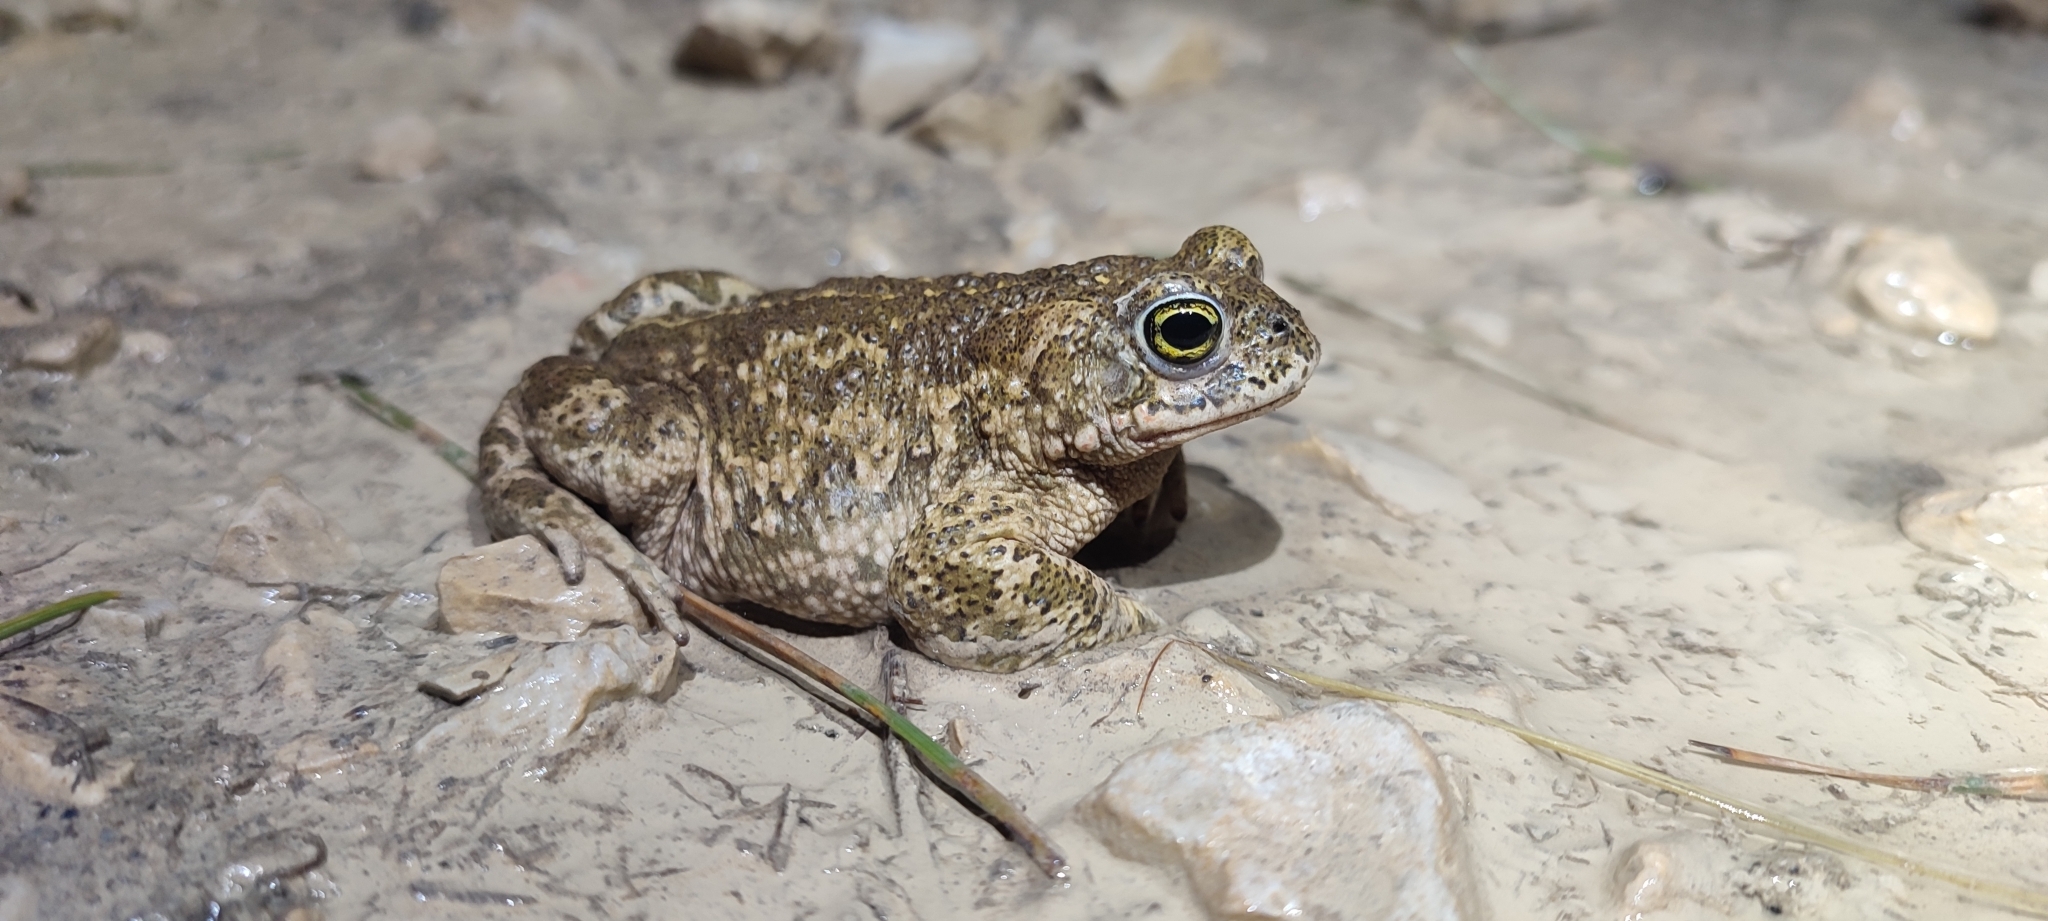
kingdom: Animalia
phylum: Chordata
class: Amphibia
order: Anura
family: Bufonidae
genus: Epidalea
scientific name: Epidalea calamita
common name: Natterjack toad
